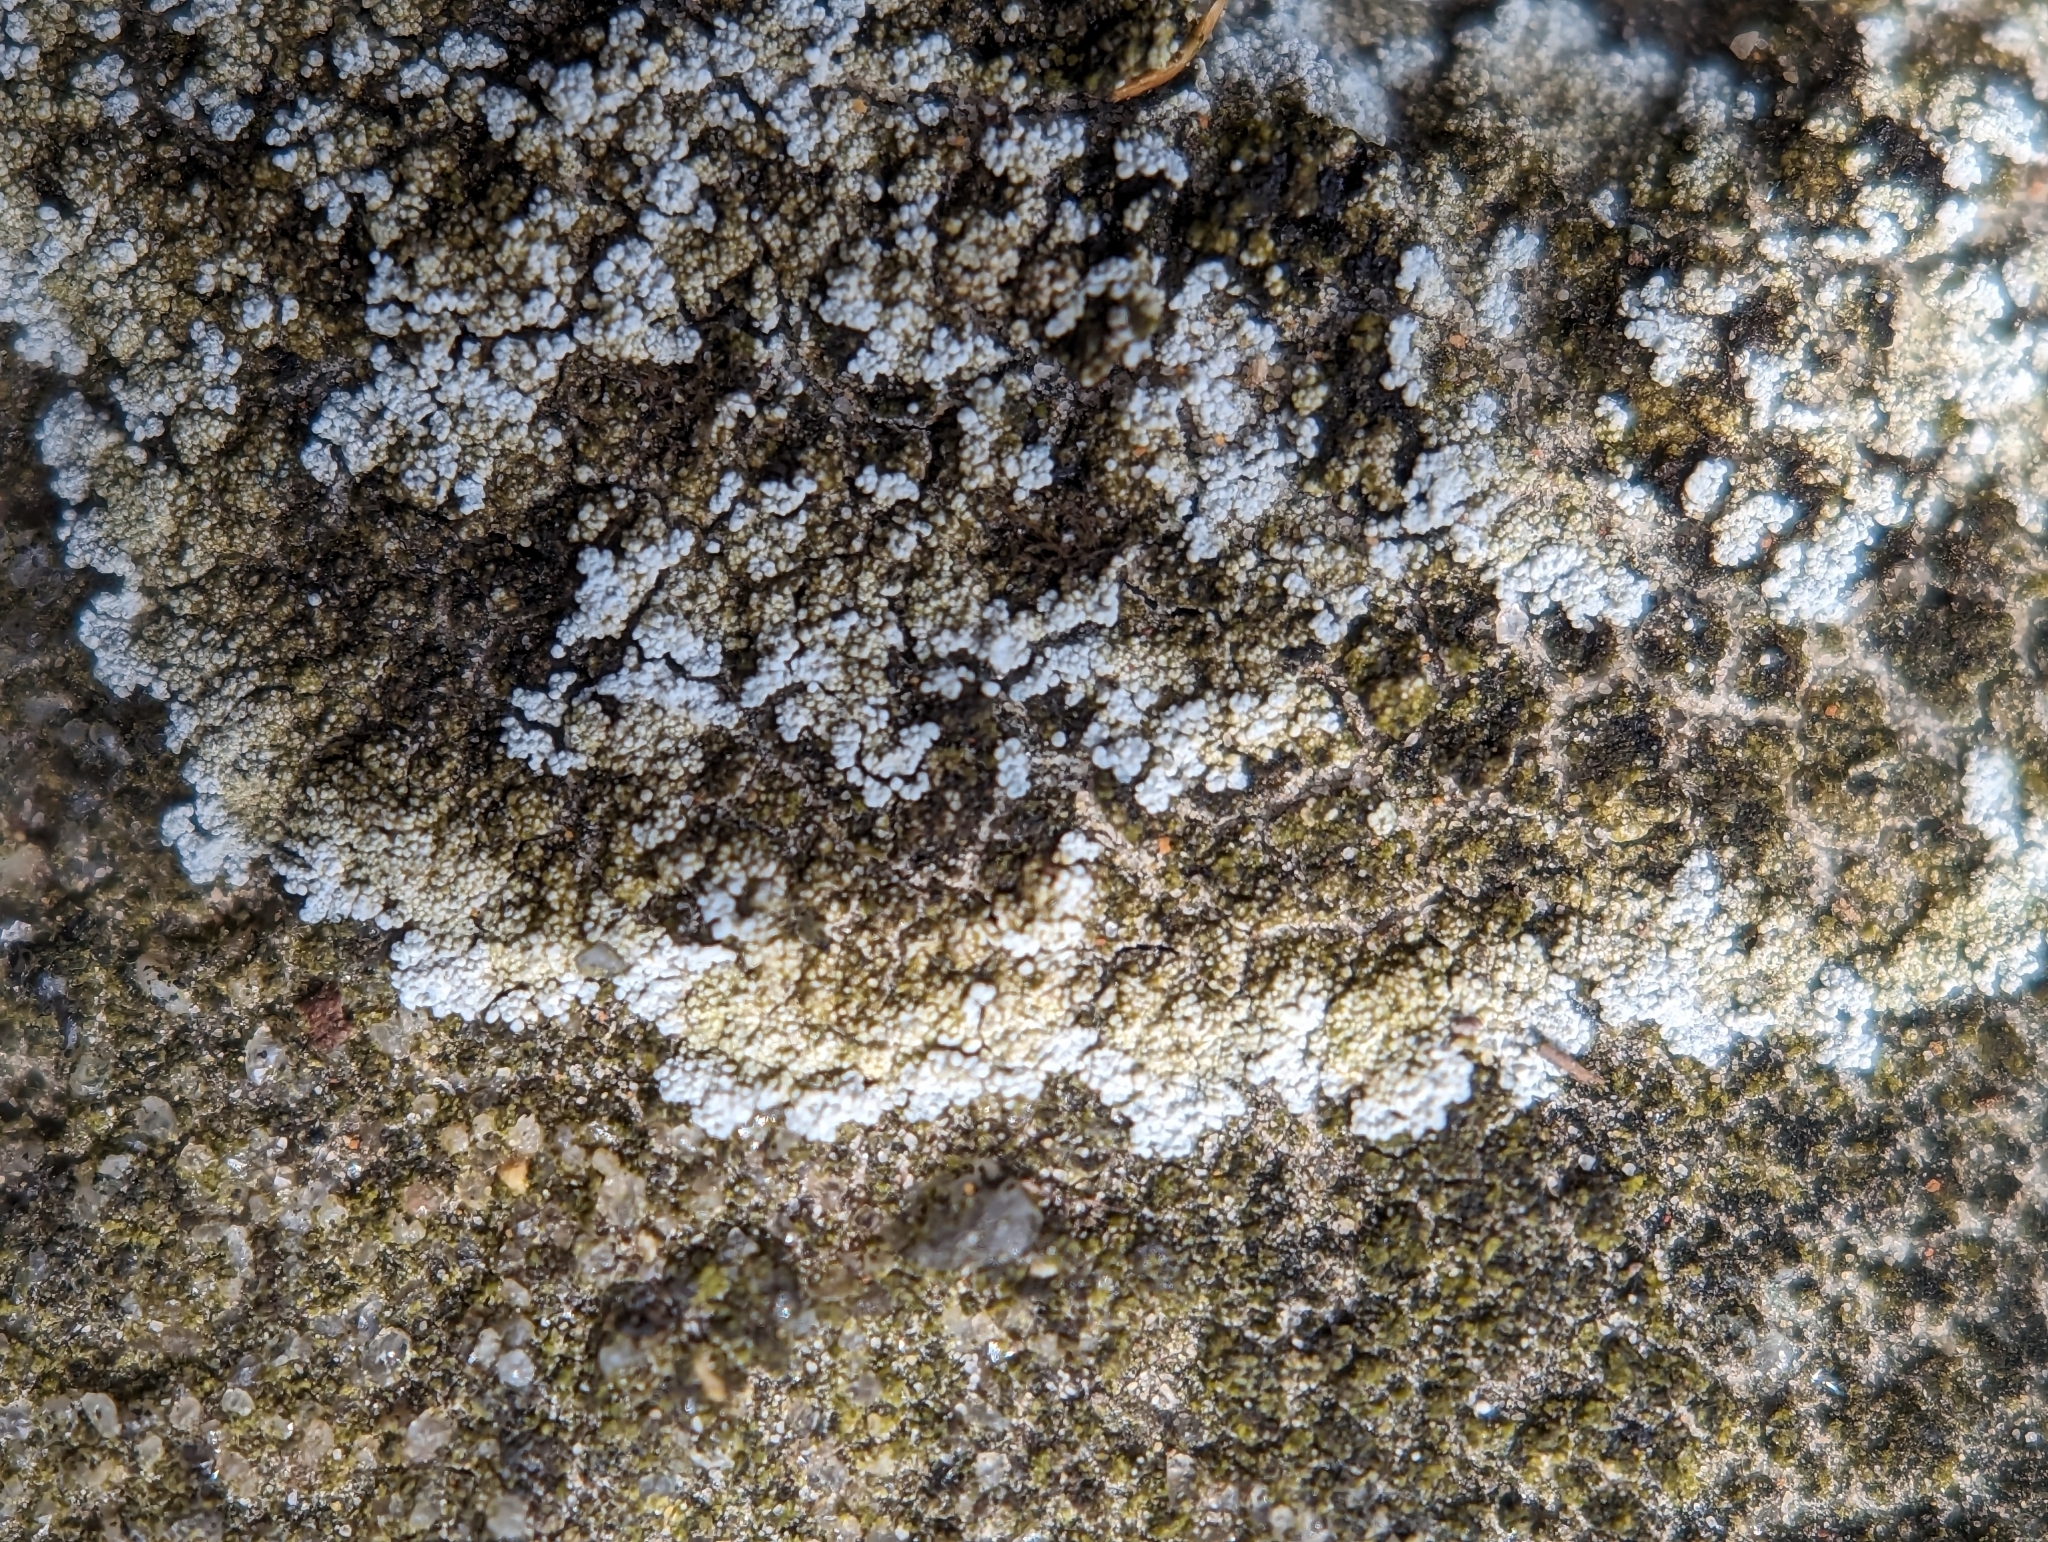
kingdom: Fungi
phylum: Ascomycota
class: Lecanoromycetes
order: Lecanorales
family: Stereocaulaceae
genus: Lepraria
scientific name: Lepraria neglecta
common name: Zoned dust lichen
